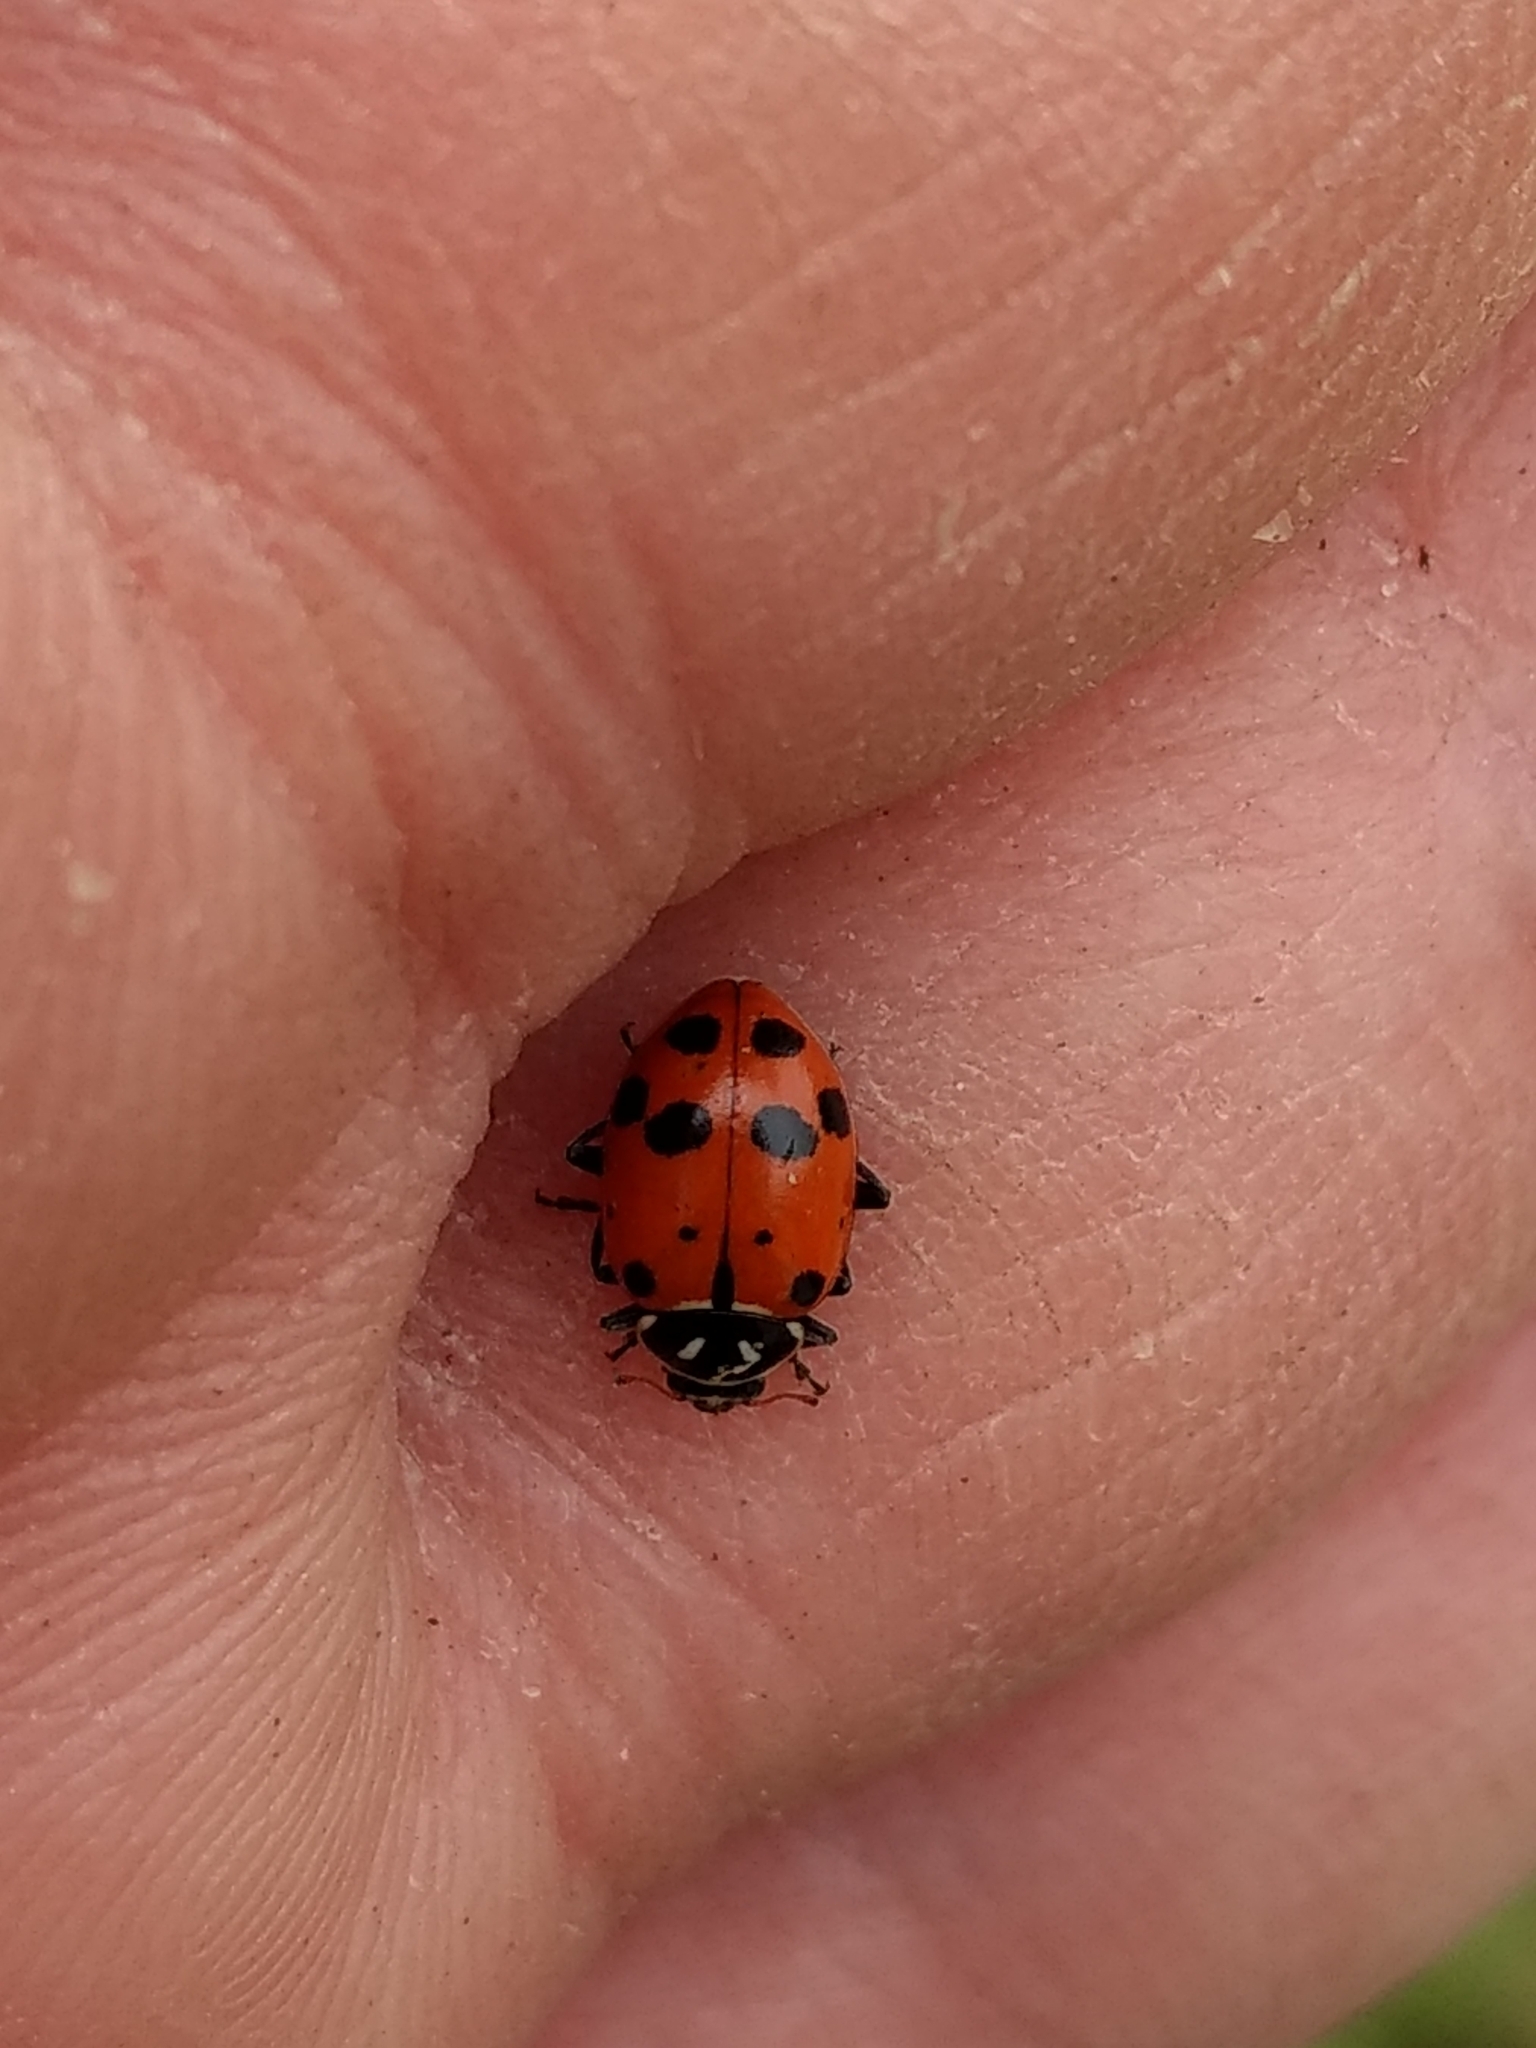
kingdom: Animalia
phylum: Arthropoda
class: Insecta
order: Coleoptera
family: Coccinellidae
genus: Hippodamia
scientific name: Hippodamia convergens
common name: Convergent lady beetle
